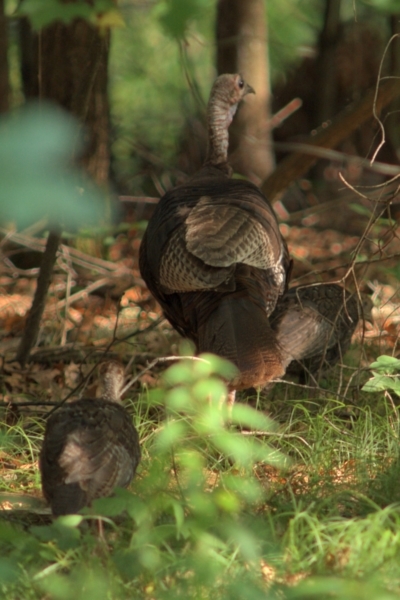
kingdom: Animalia
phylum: Chordata
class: Aves
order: Galliformes
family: Phasianidae
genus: Meleagris
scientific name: Meleagris gallopavo
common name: Wild turkey
